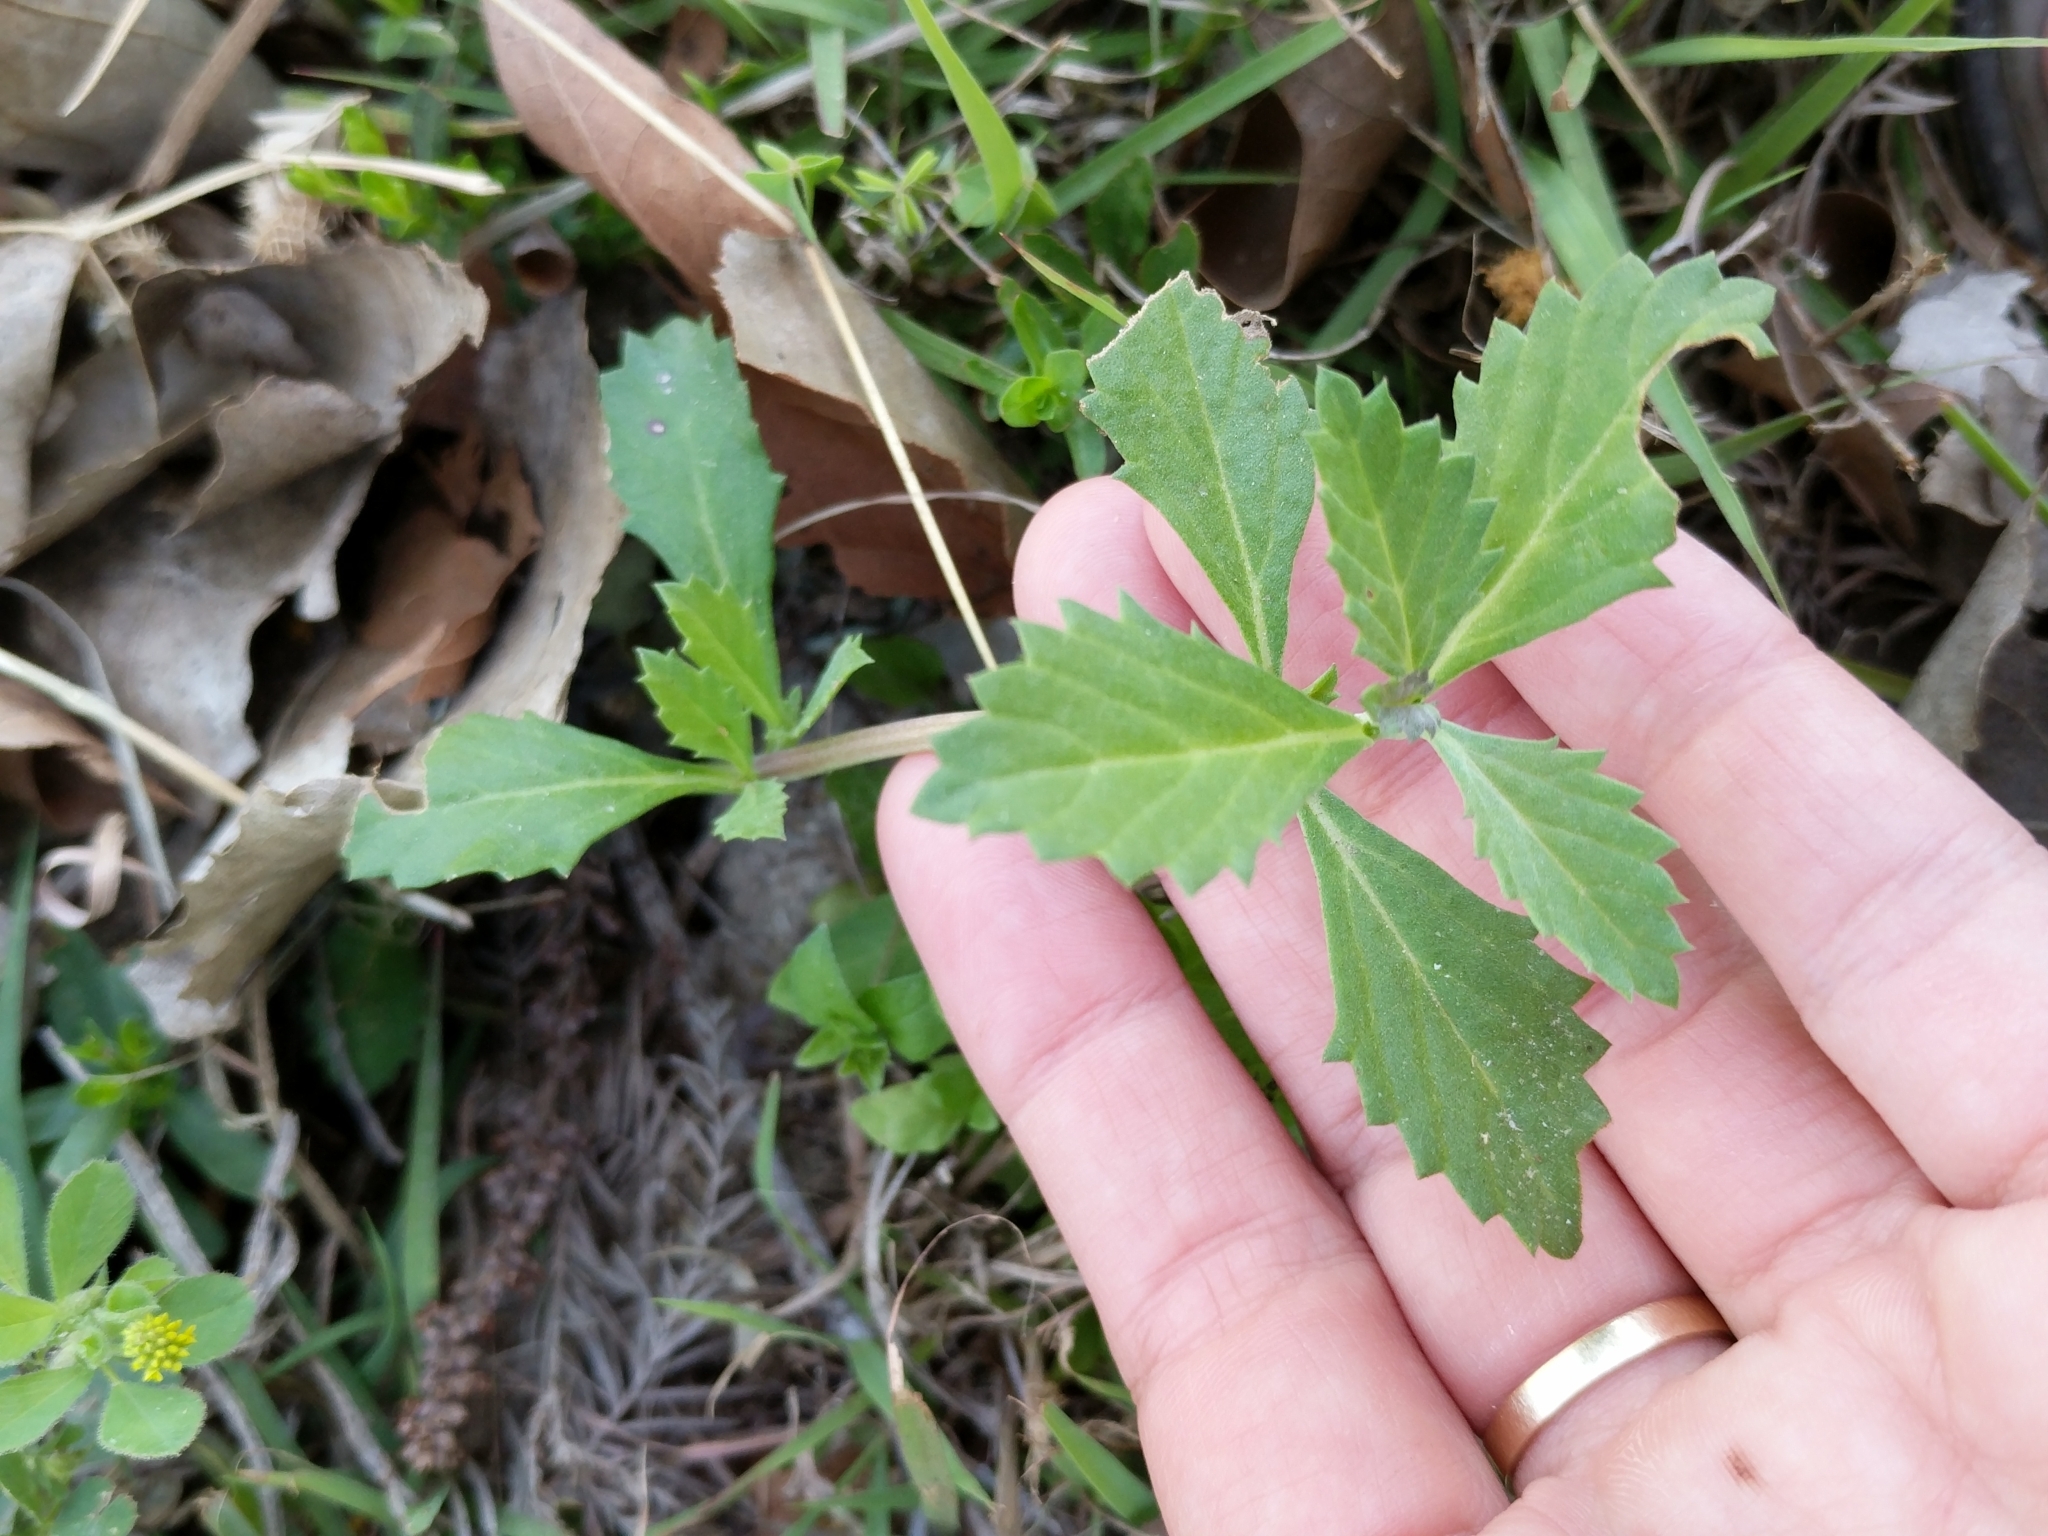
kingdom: Plantae
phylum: Tracheophyta
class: Magnoliopsida
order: Lamiales
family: Verbenaceae
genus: Phyla
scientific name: Phyla nodiflora
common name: Frogfruit
